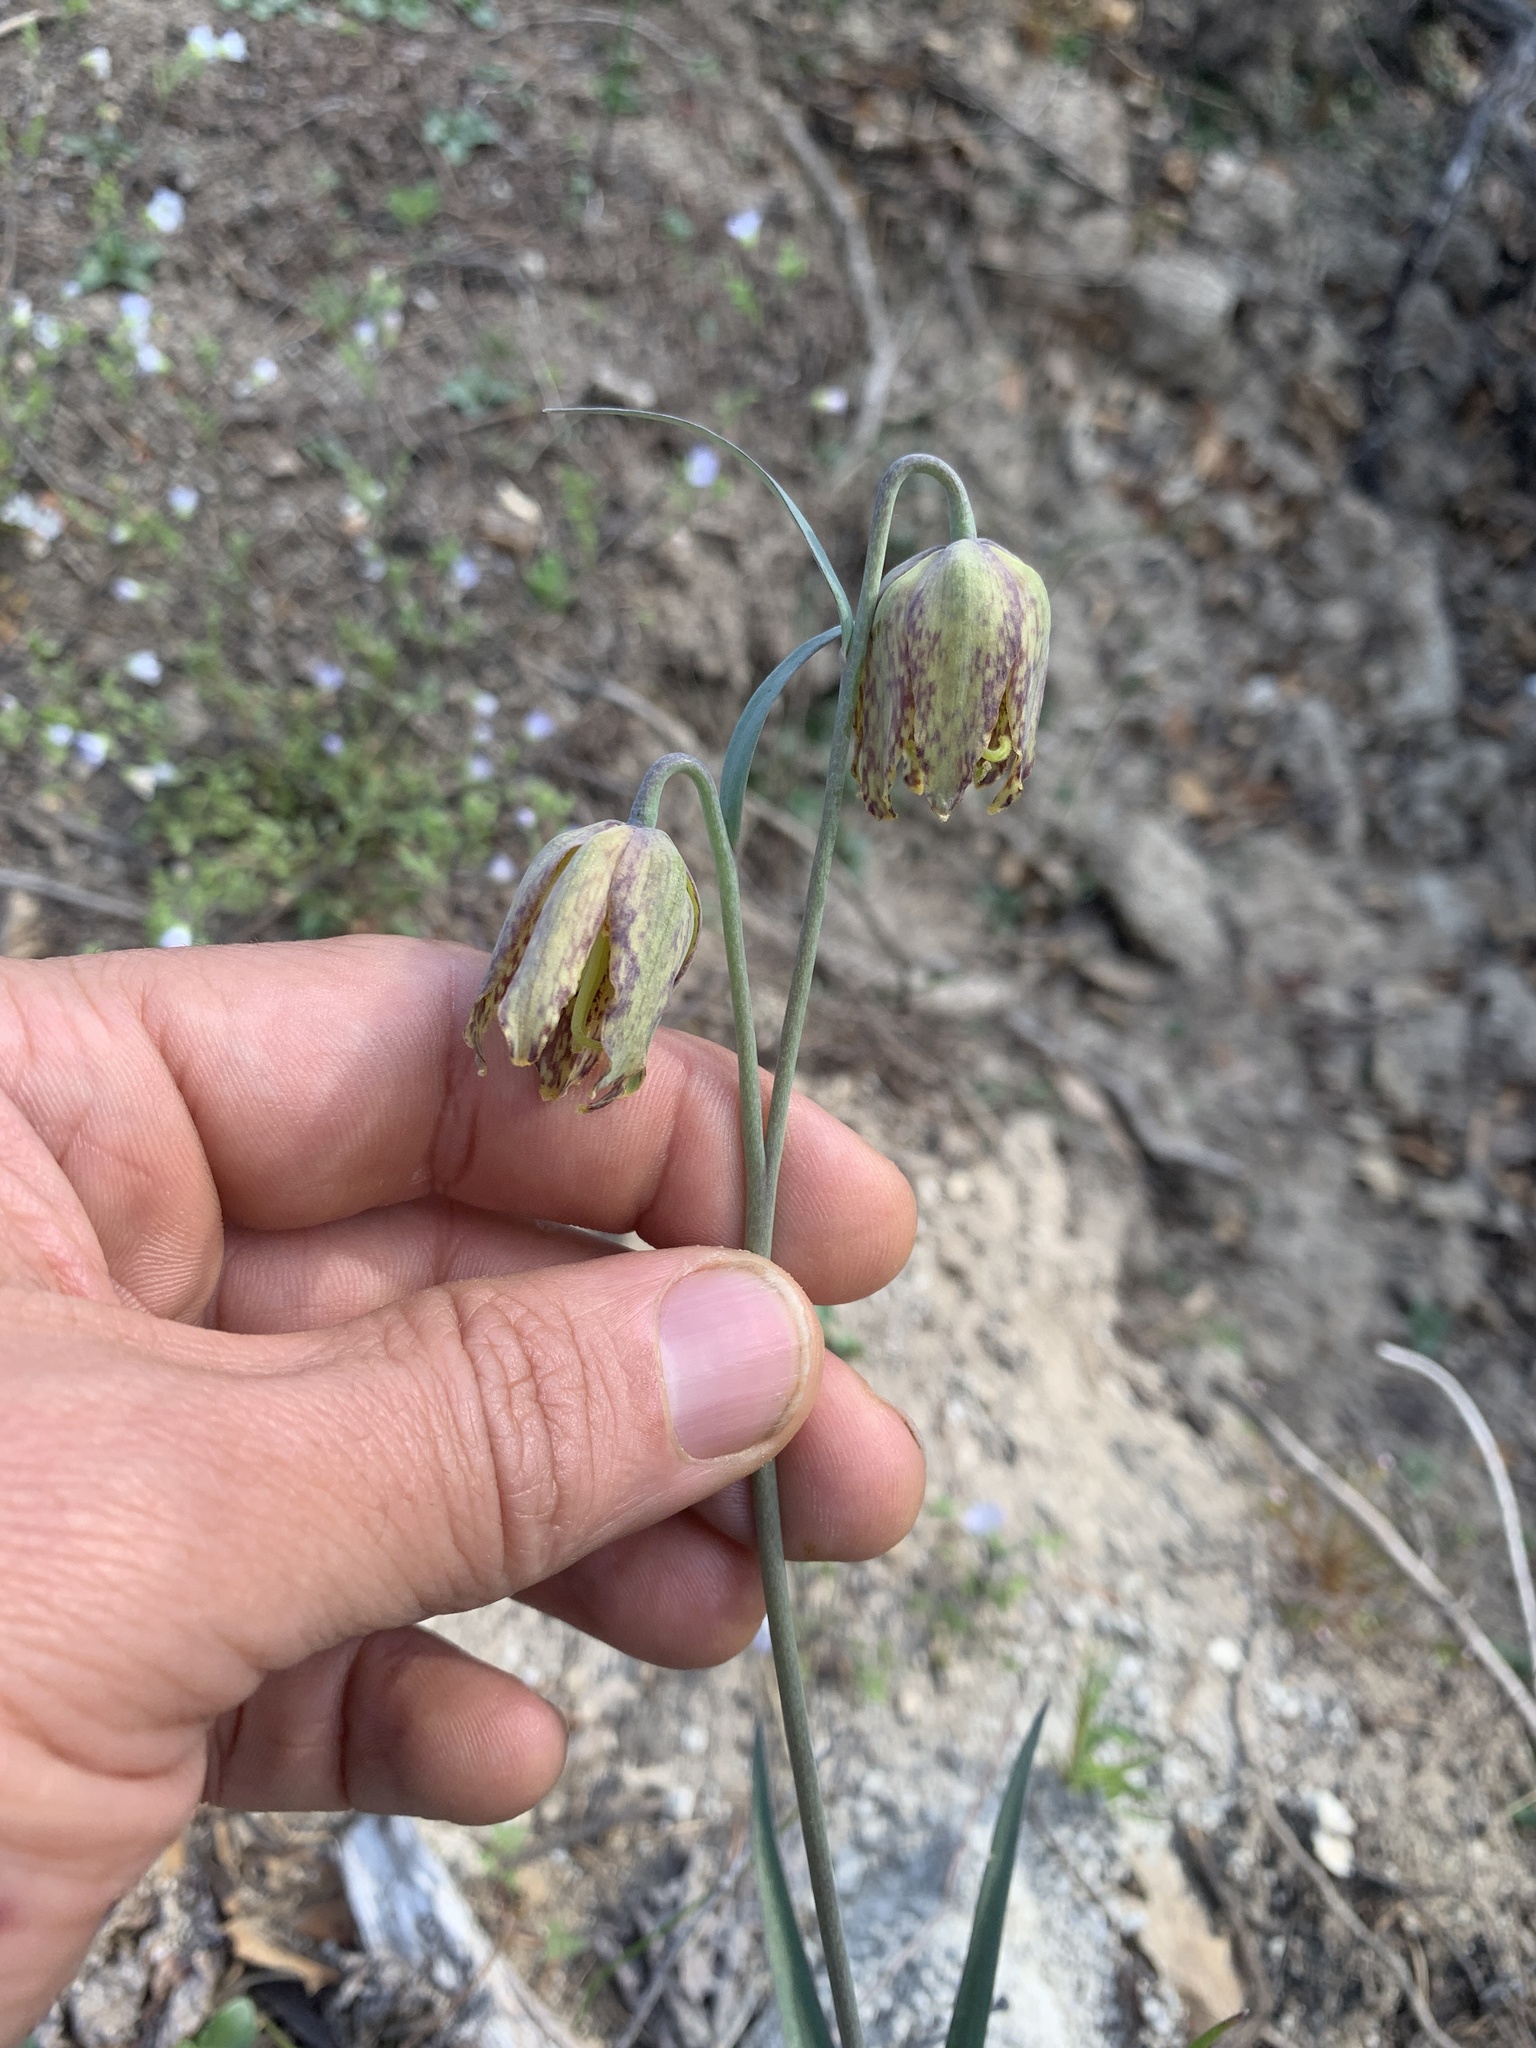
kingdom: Plantae
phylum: Tracheophyta
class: Liliopsida
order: Liliales
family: Liliaceae
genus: Fritillaria
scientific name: Fritillaria affinis
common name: Ojai fritillary
